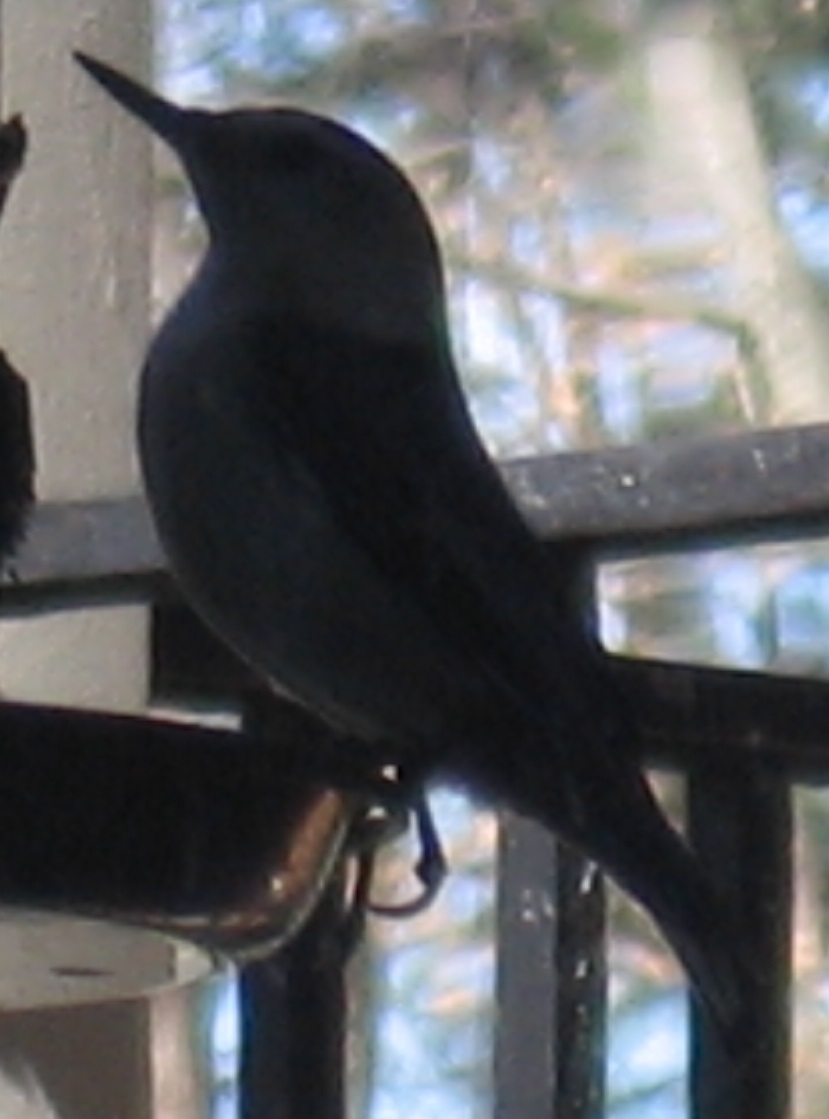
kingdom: Animalia
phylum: Chordata
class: Aves
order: Passeriformes
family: Sittidae
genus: Sitta
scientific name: Sitta carolinensis
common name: White-breasted nuthatch
